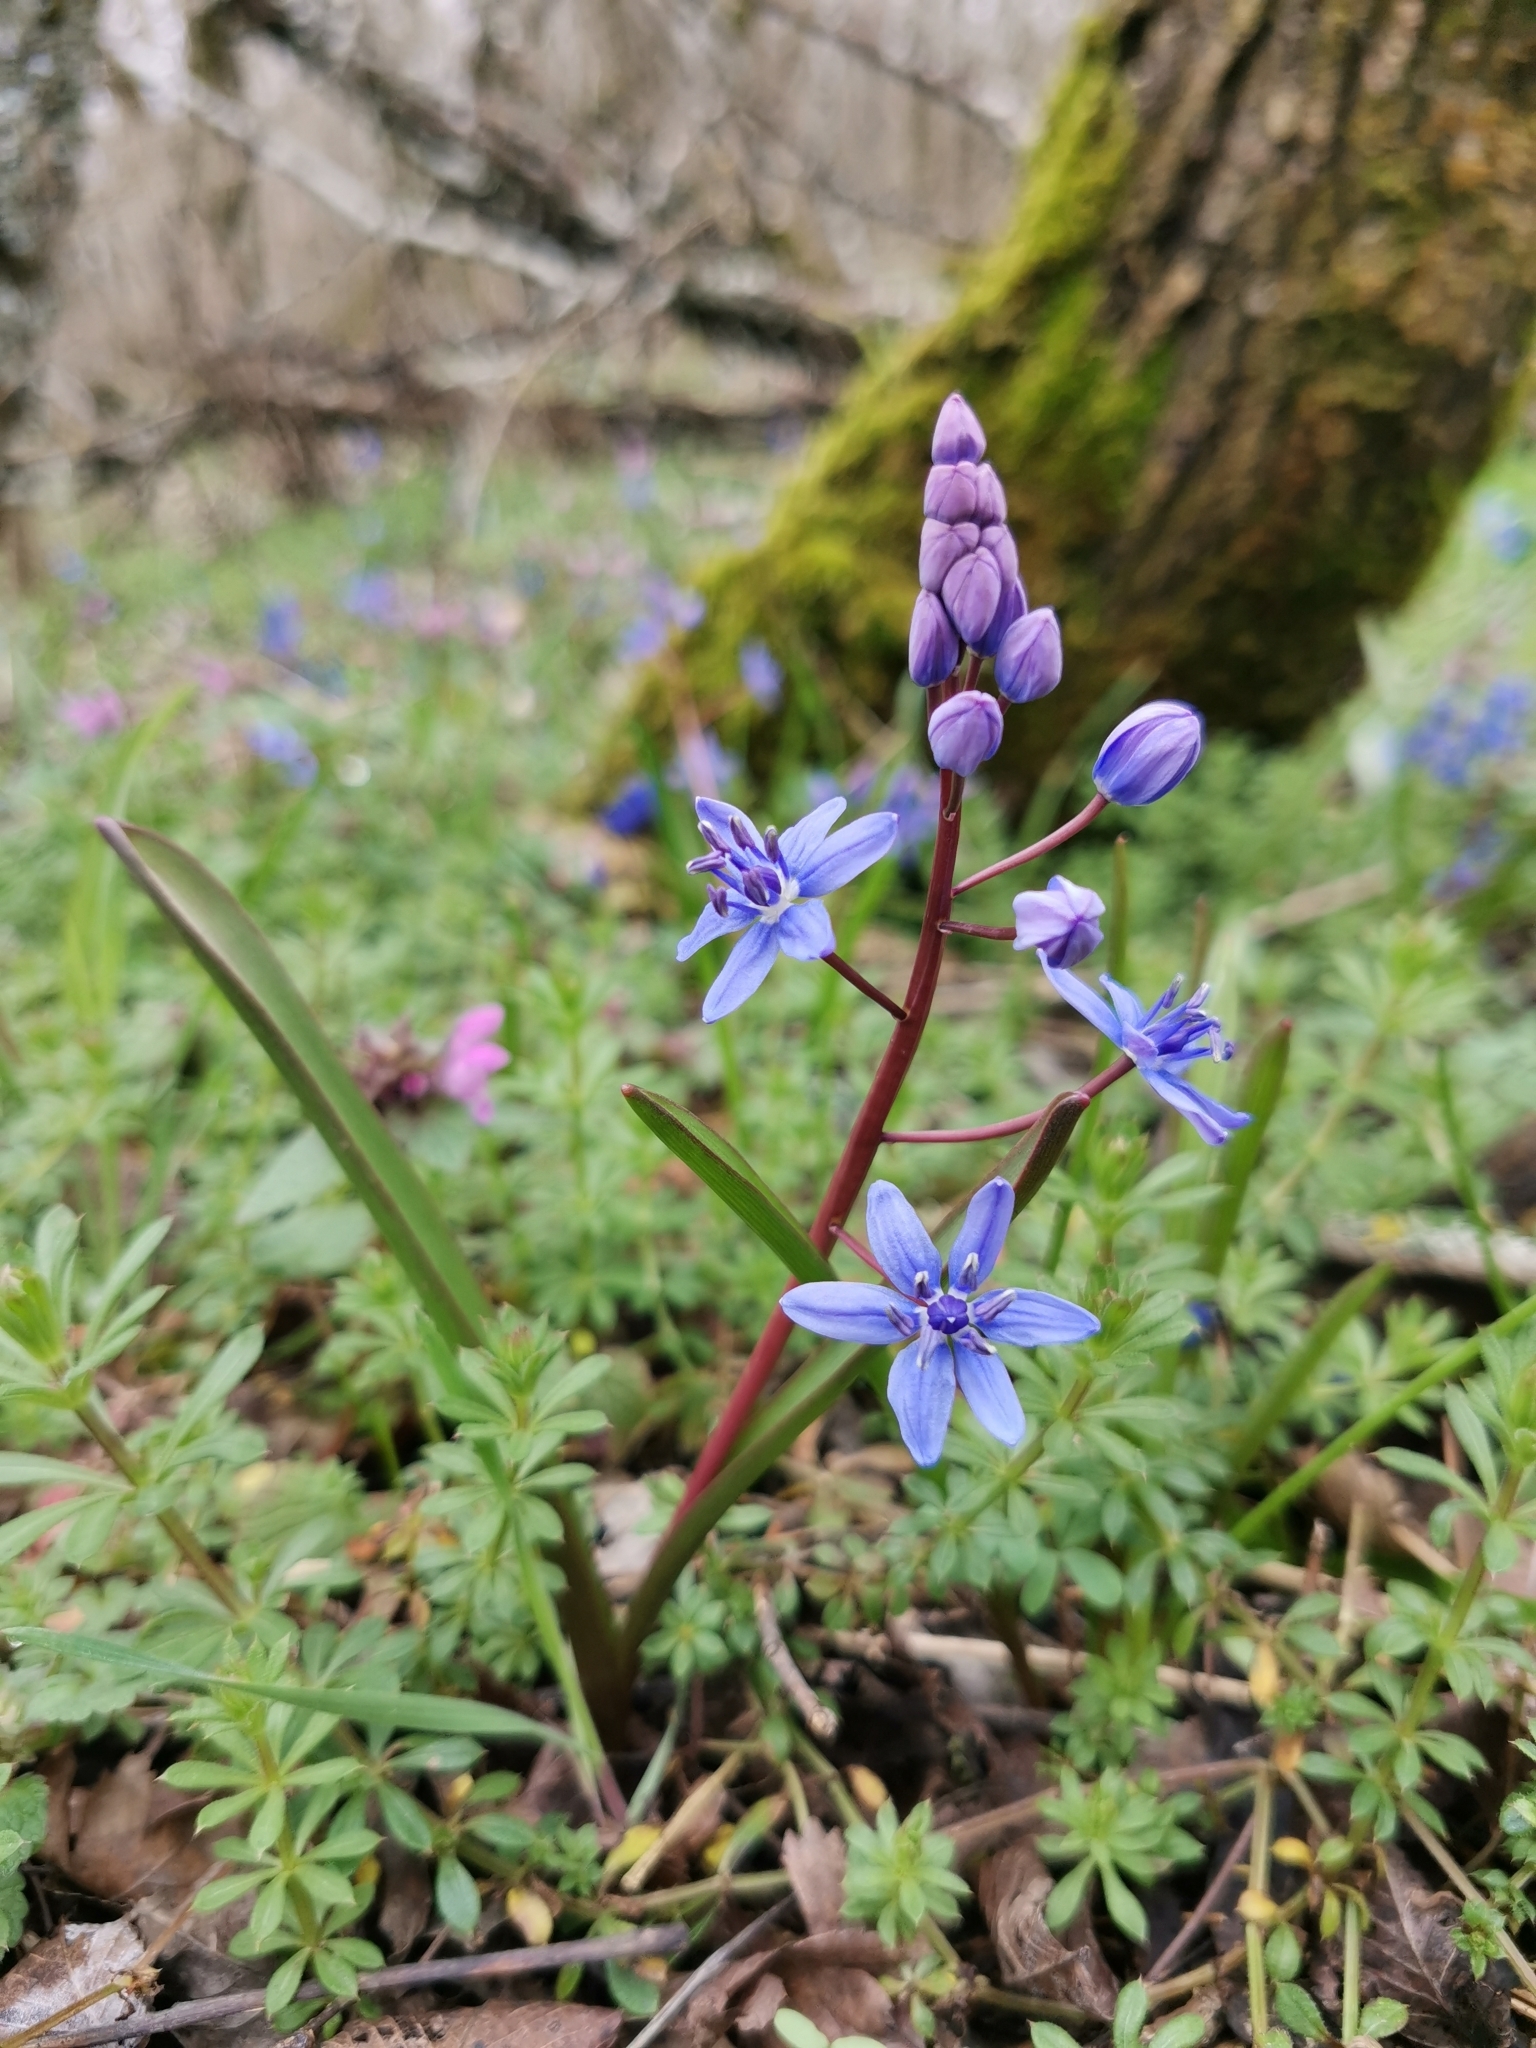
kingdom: Plantae
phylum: Tracheophyta
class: Liliopsida
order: Asparagales
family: Asparagaceae
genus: Scilla
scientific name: Scilla bifolia
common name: Alpine squill
